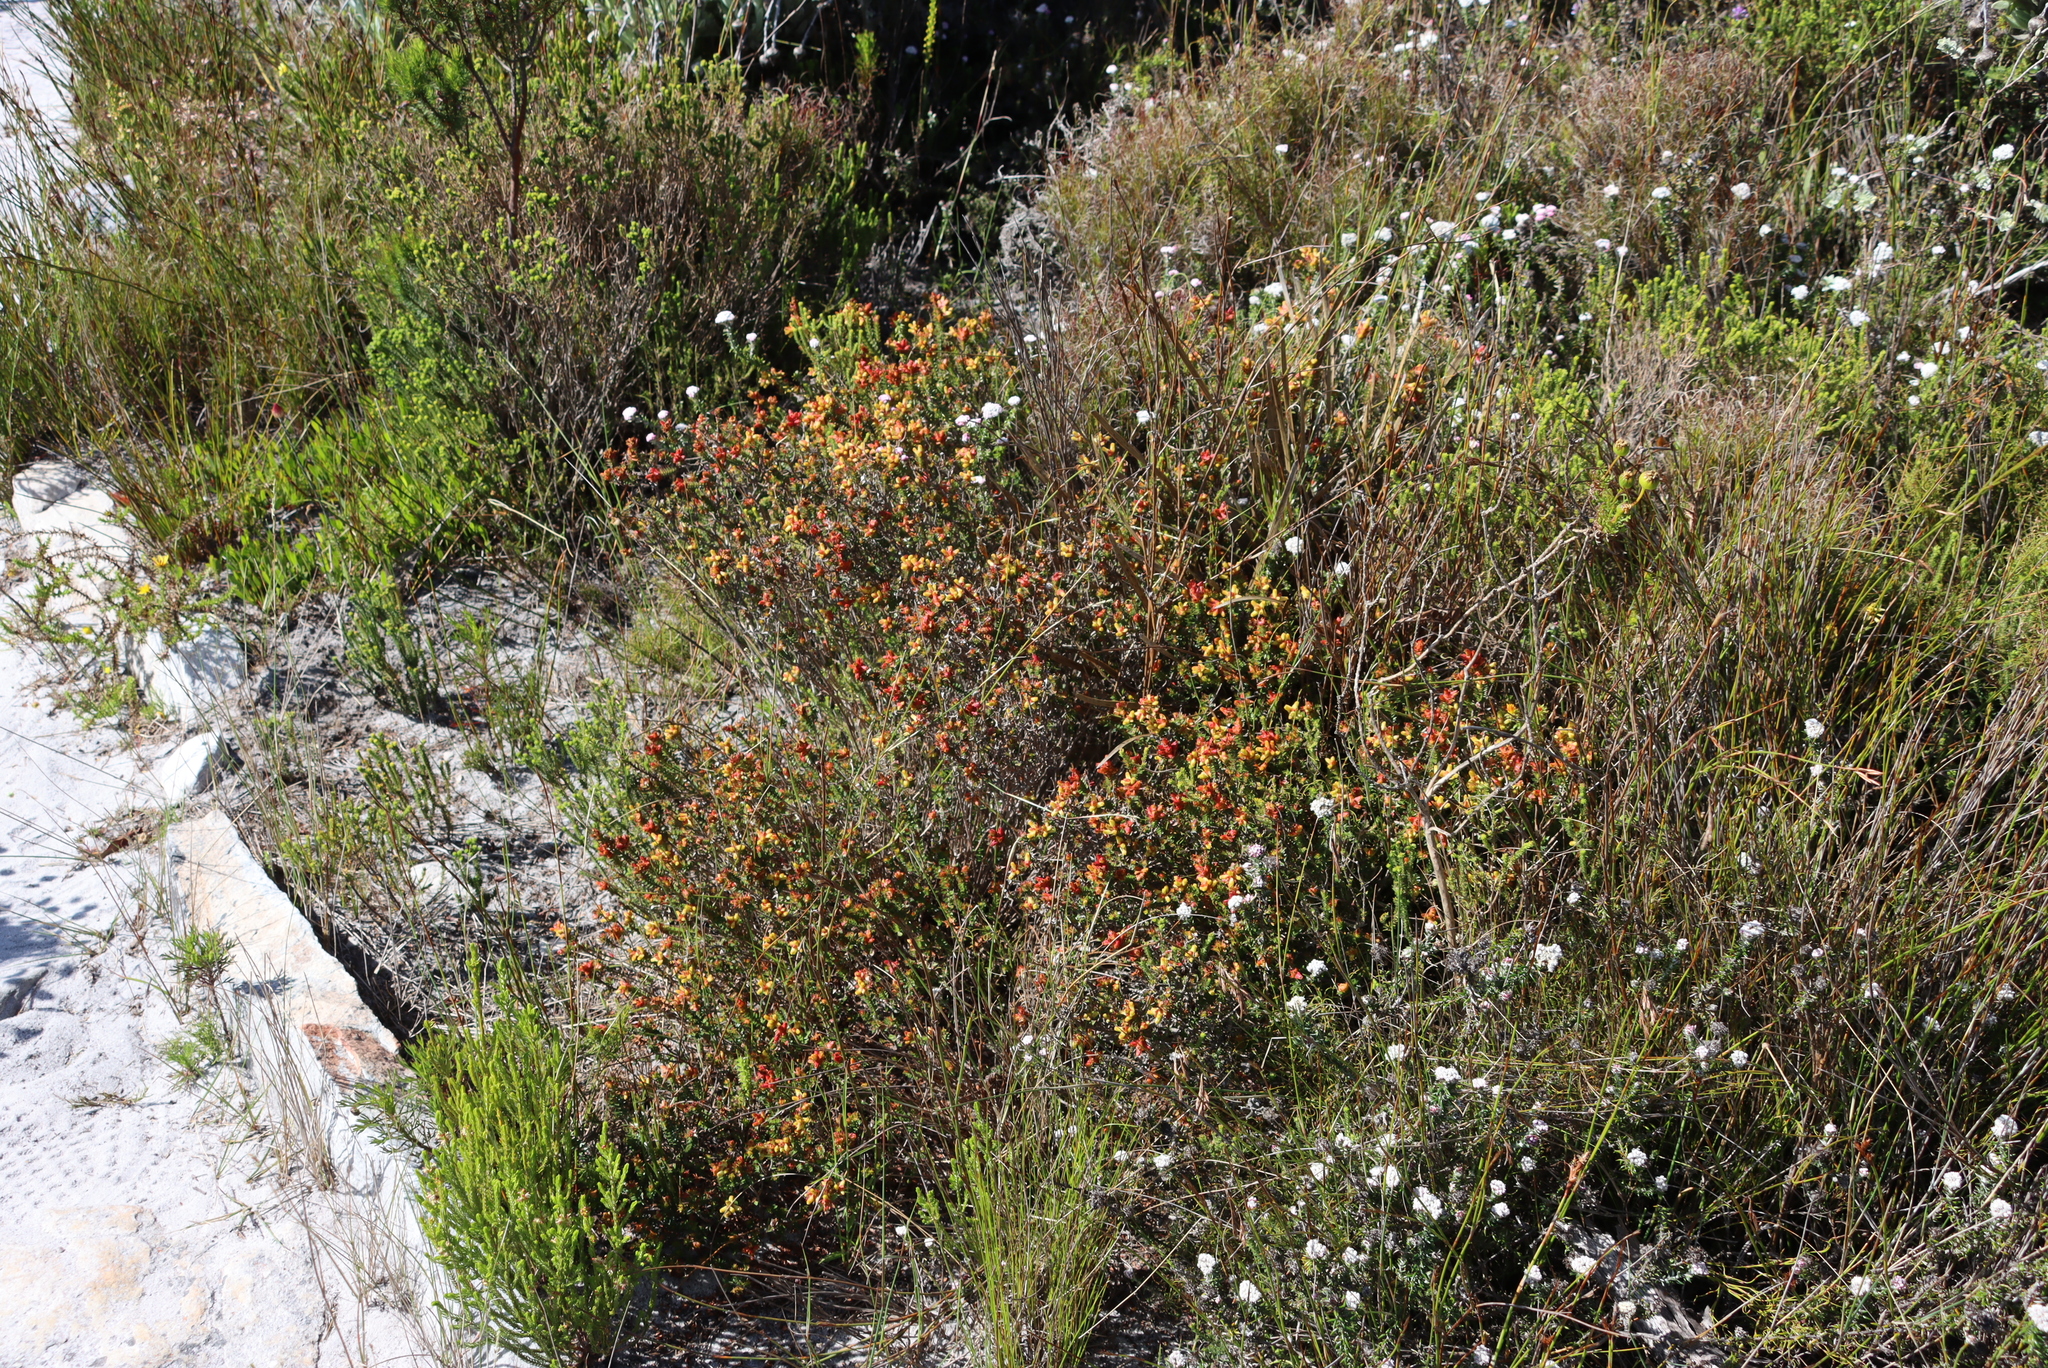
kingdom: Plantae
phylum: Tracheophyta
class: Magnoliopsida
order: Myrtales
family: Penaeaceae
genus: Penaea
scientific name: Penaea mucronata
